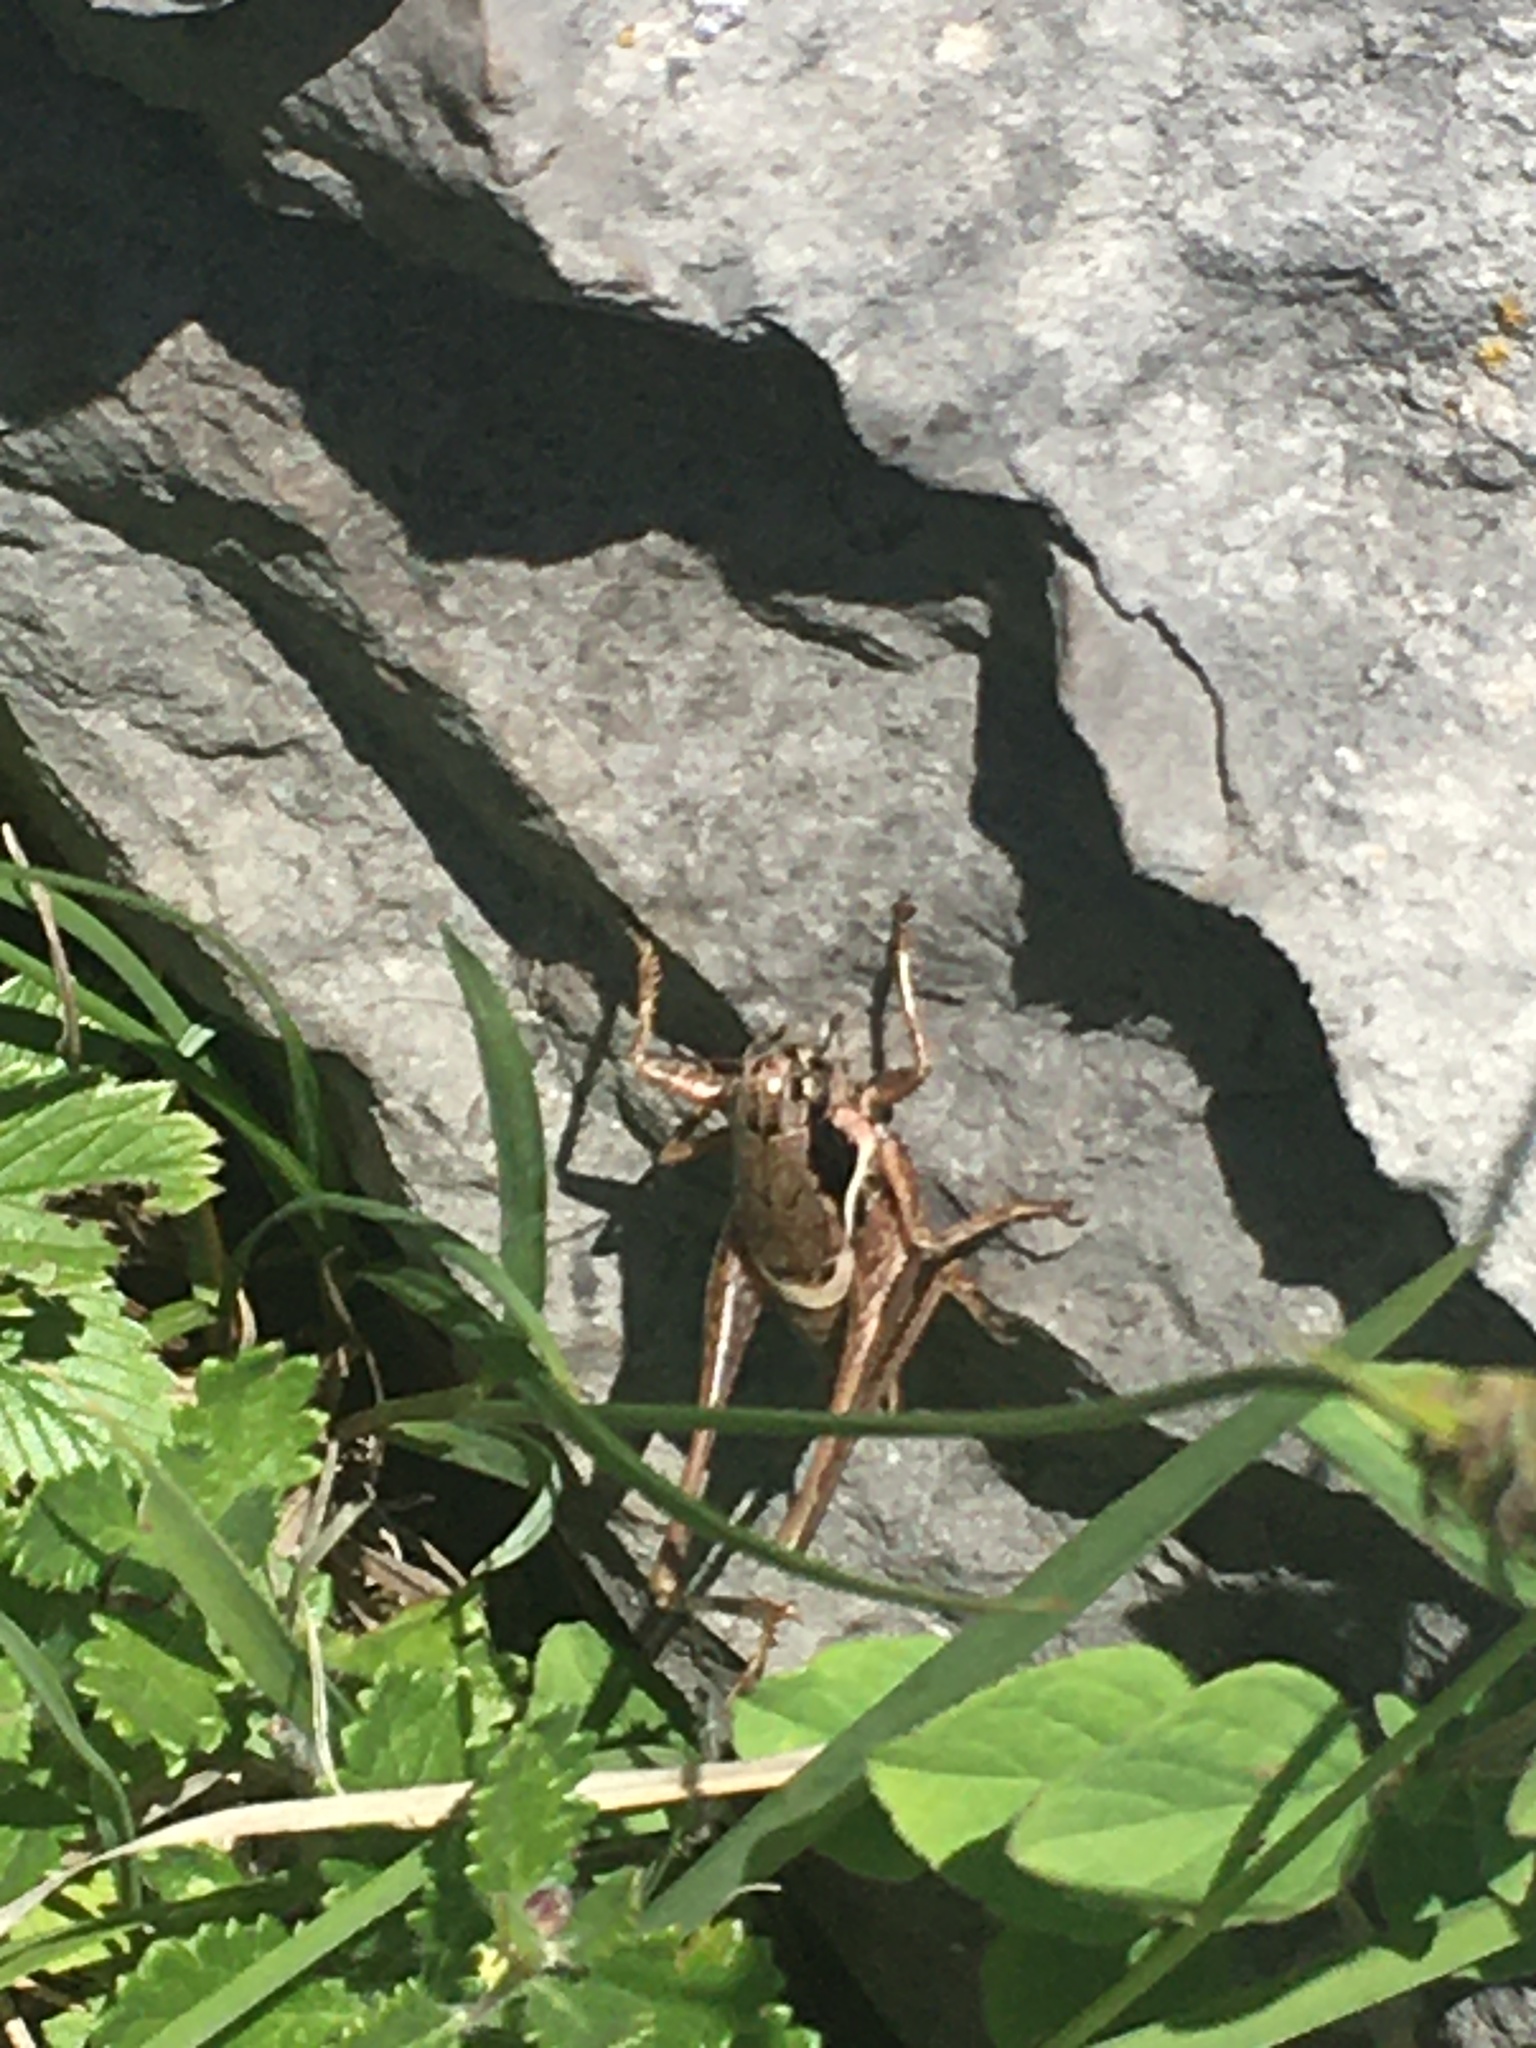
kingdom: Animalia
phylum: Arthropoda
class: Insecta
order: Orthoptera
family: Tettigoniidae
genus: Pholidoptera
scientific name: Pholidoptera pustulipes
